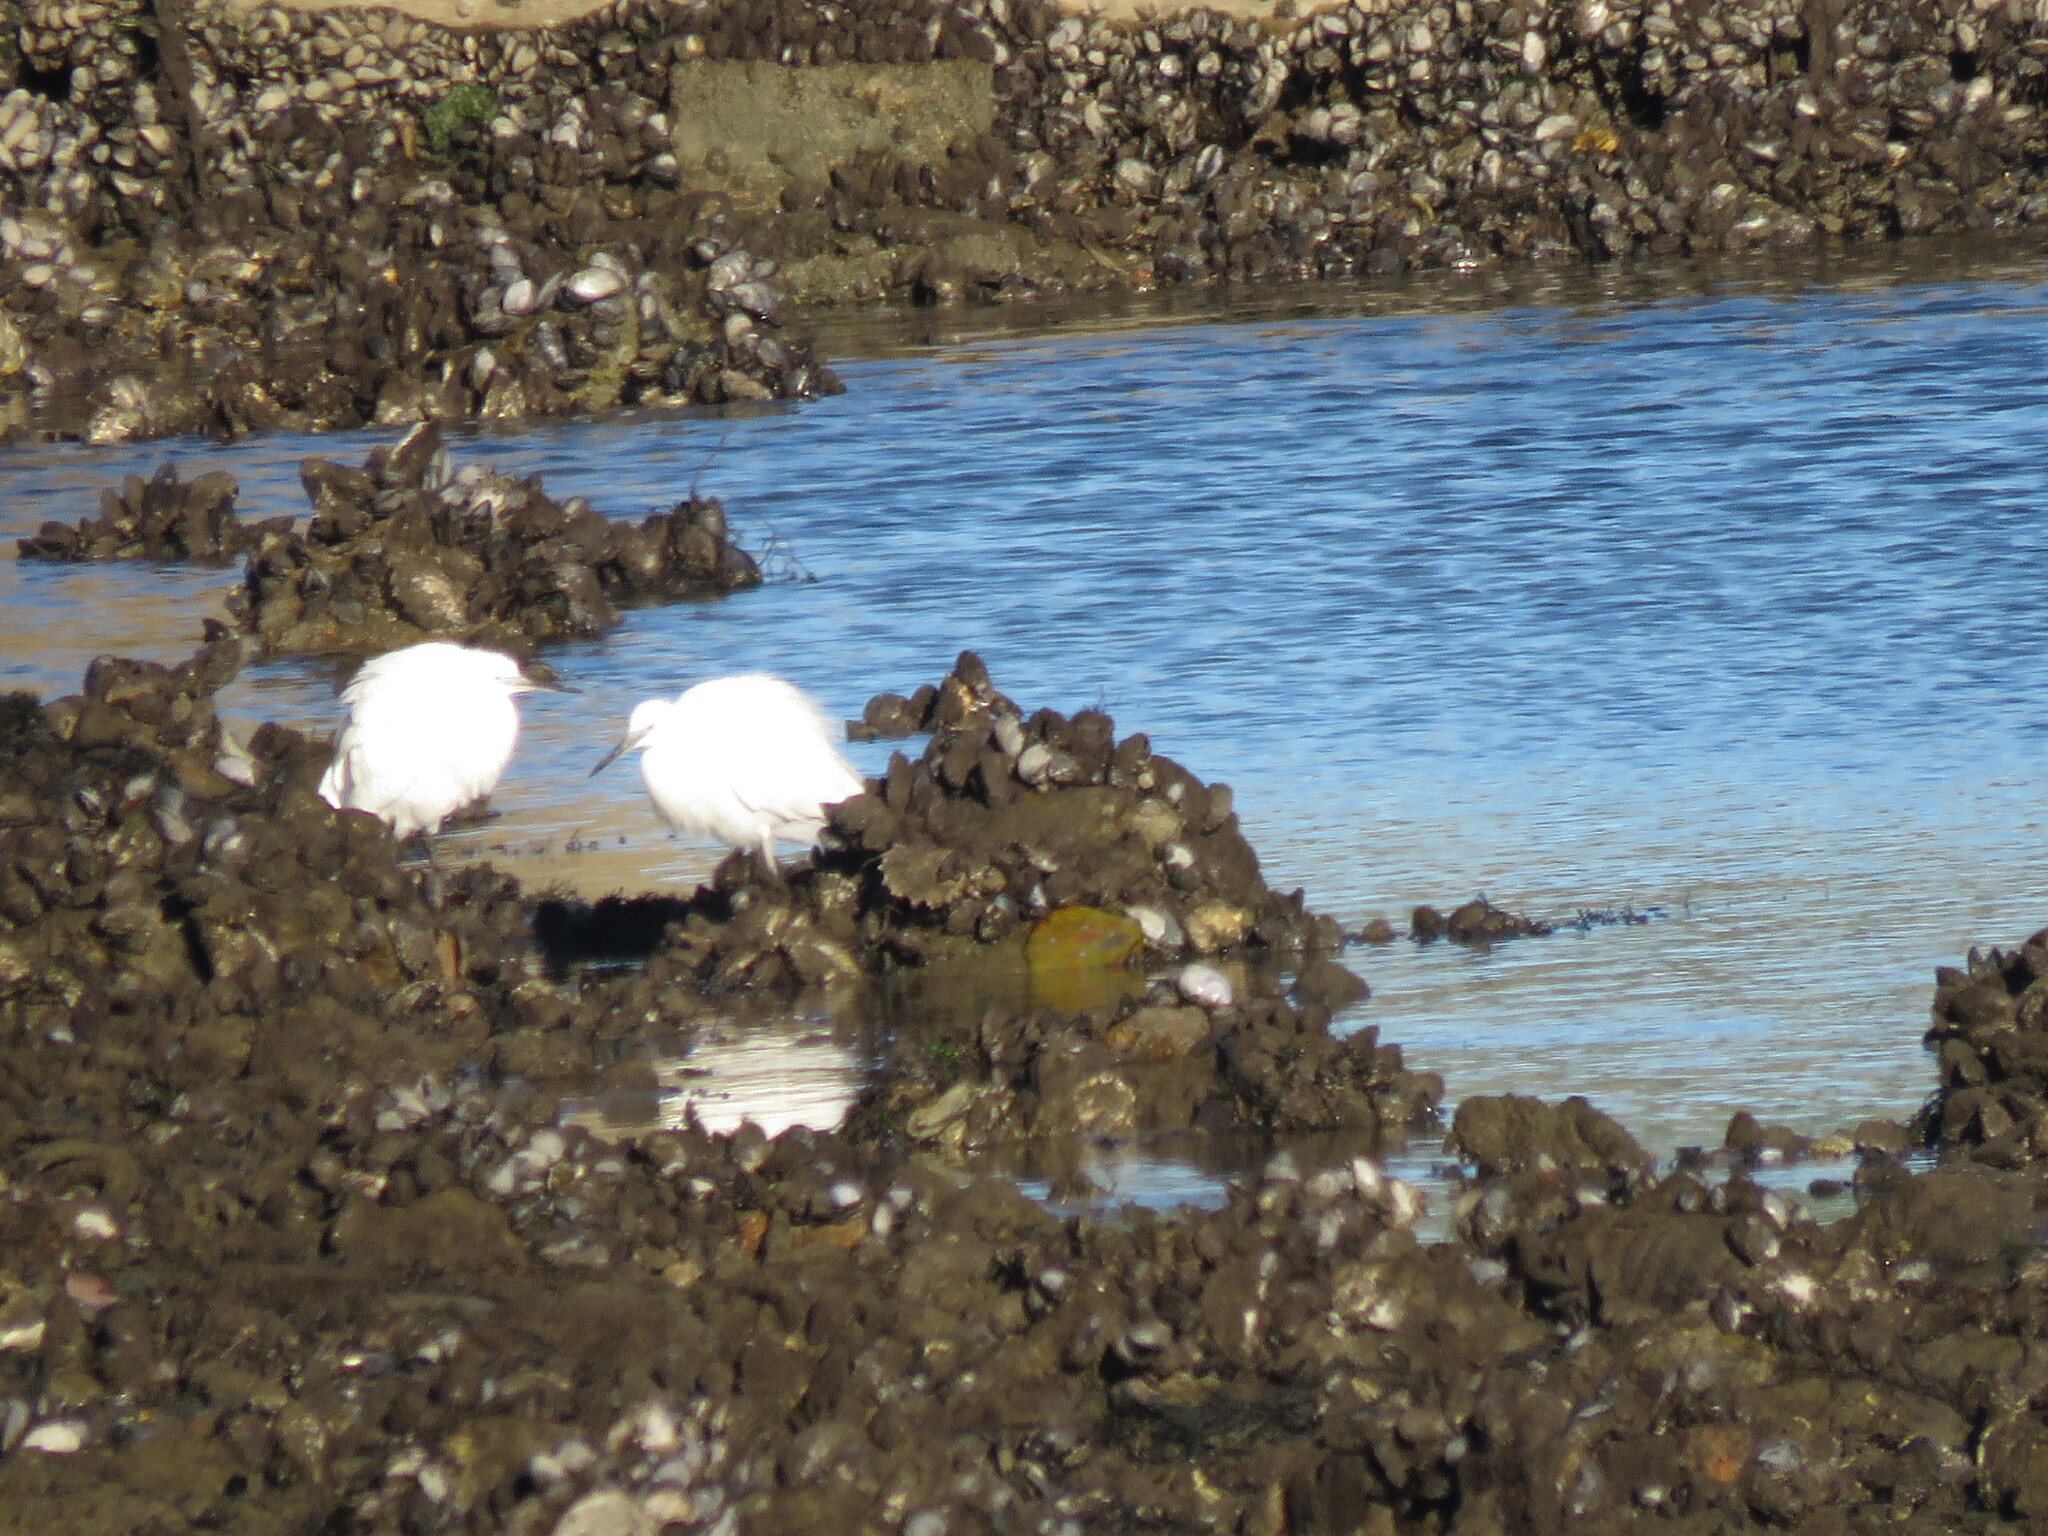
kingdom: Animalia
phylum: Chordata
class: Aves
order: Pelecaniformes
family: Ardeidae
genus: Egretta
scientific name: Egretta garzetta
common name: Little egret
